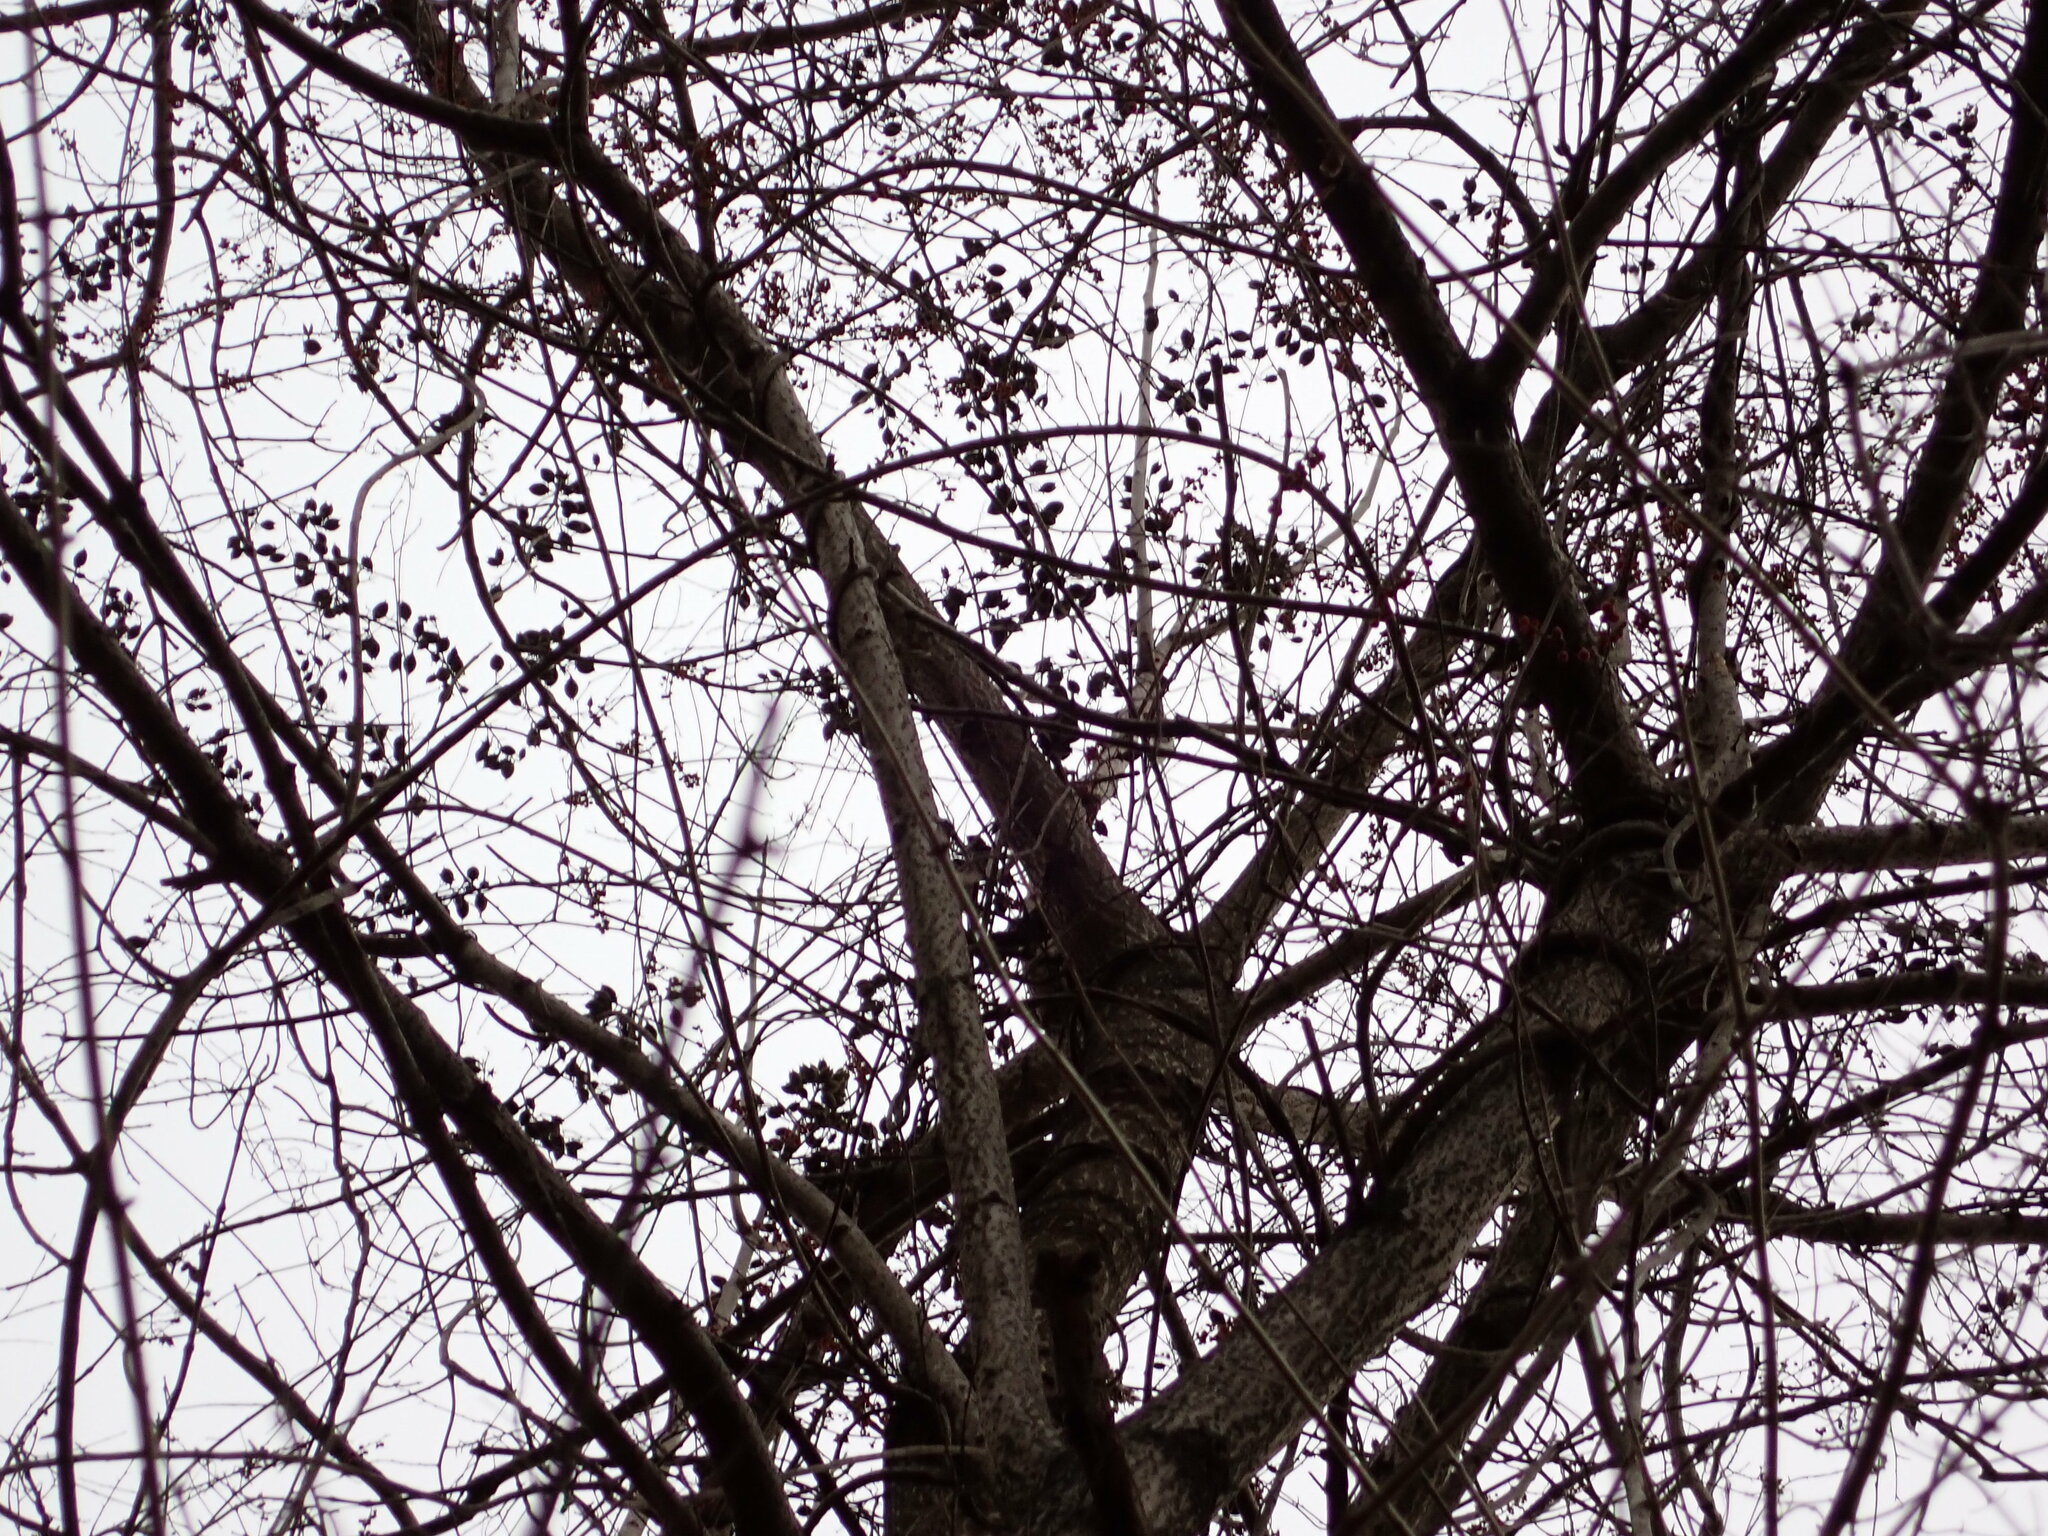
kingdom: Plantae
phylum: Tracheophyta
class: Magnoliopsida
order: Lamiales
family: Paulowniaceae
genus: Paulownia
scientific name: Paulownia tomentosa
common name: Foxglove-tree
